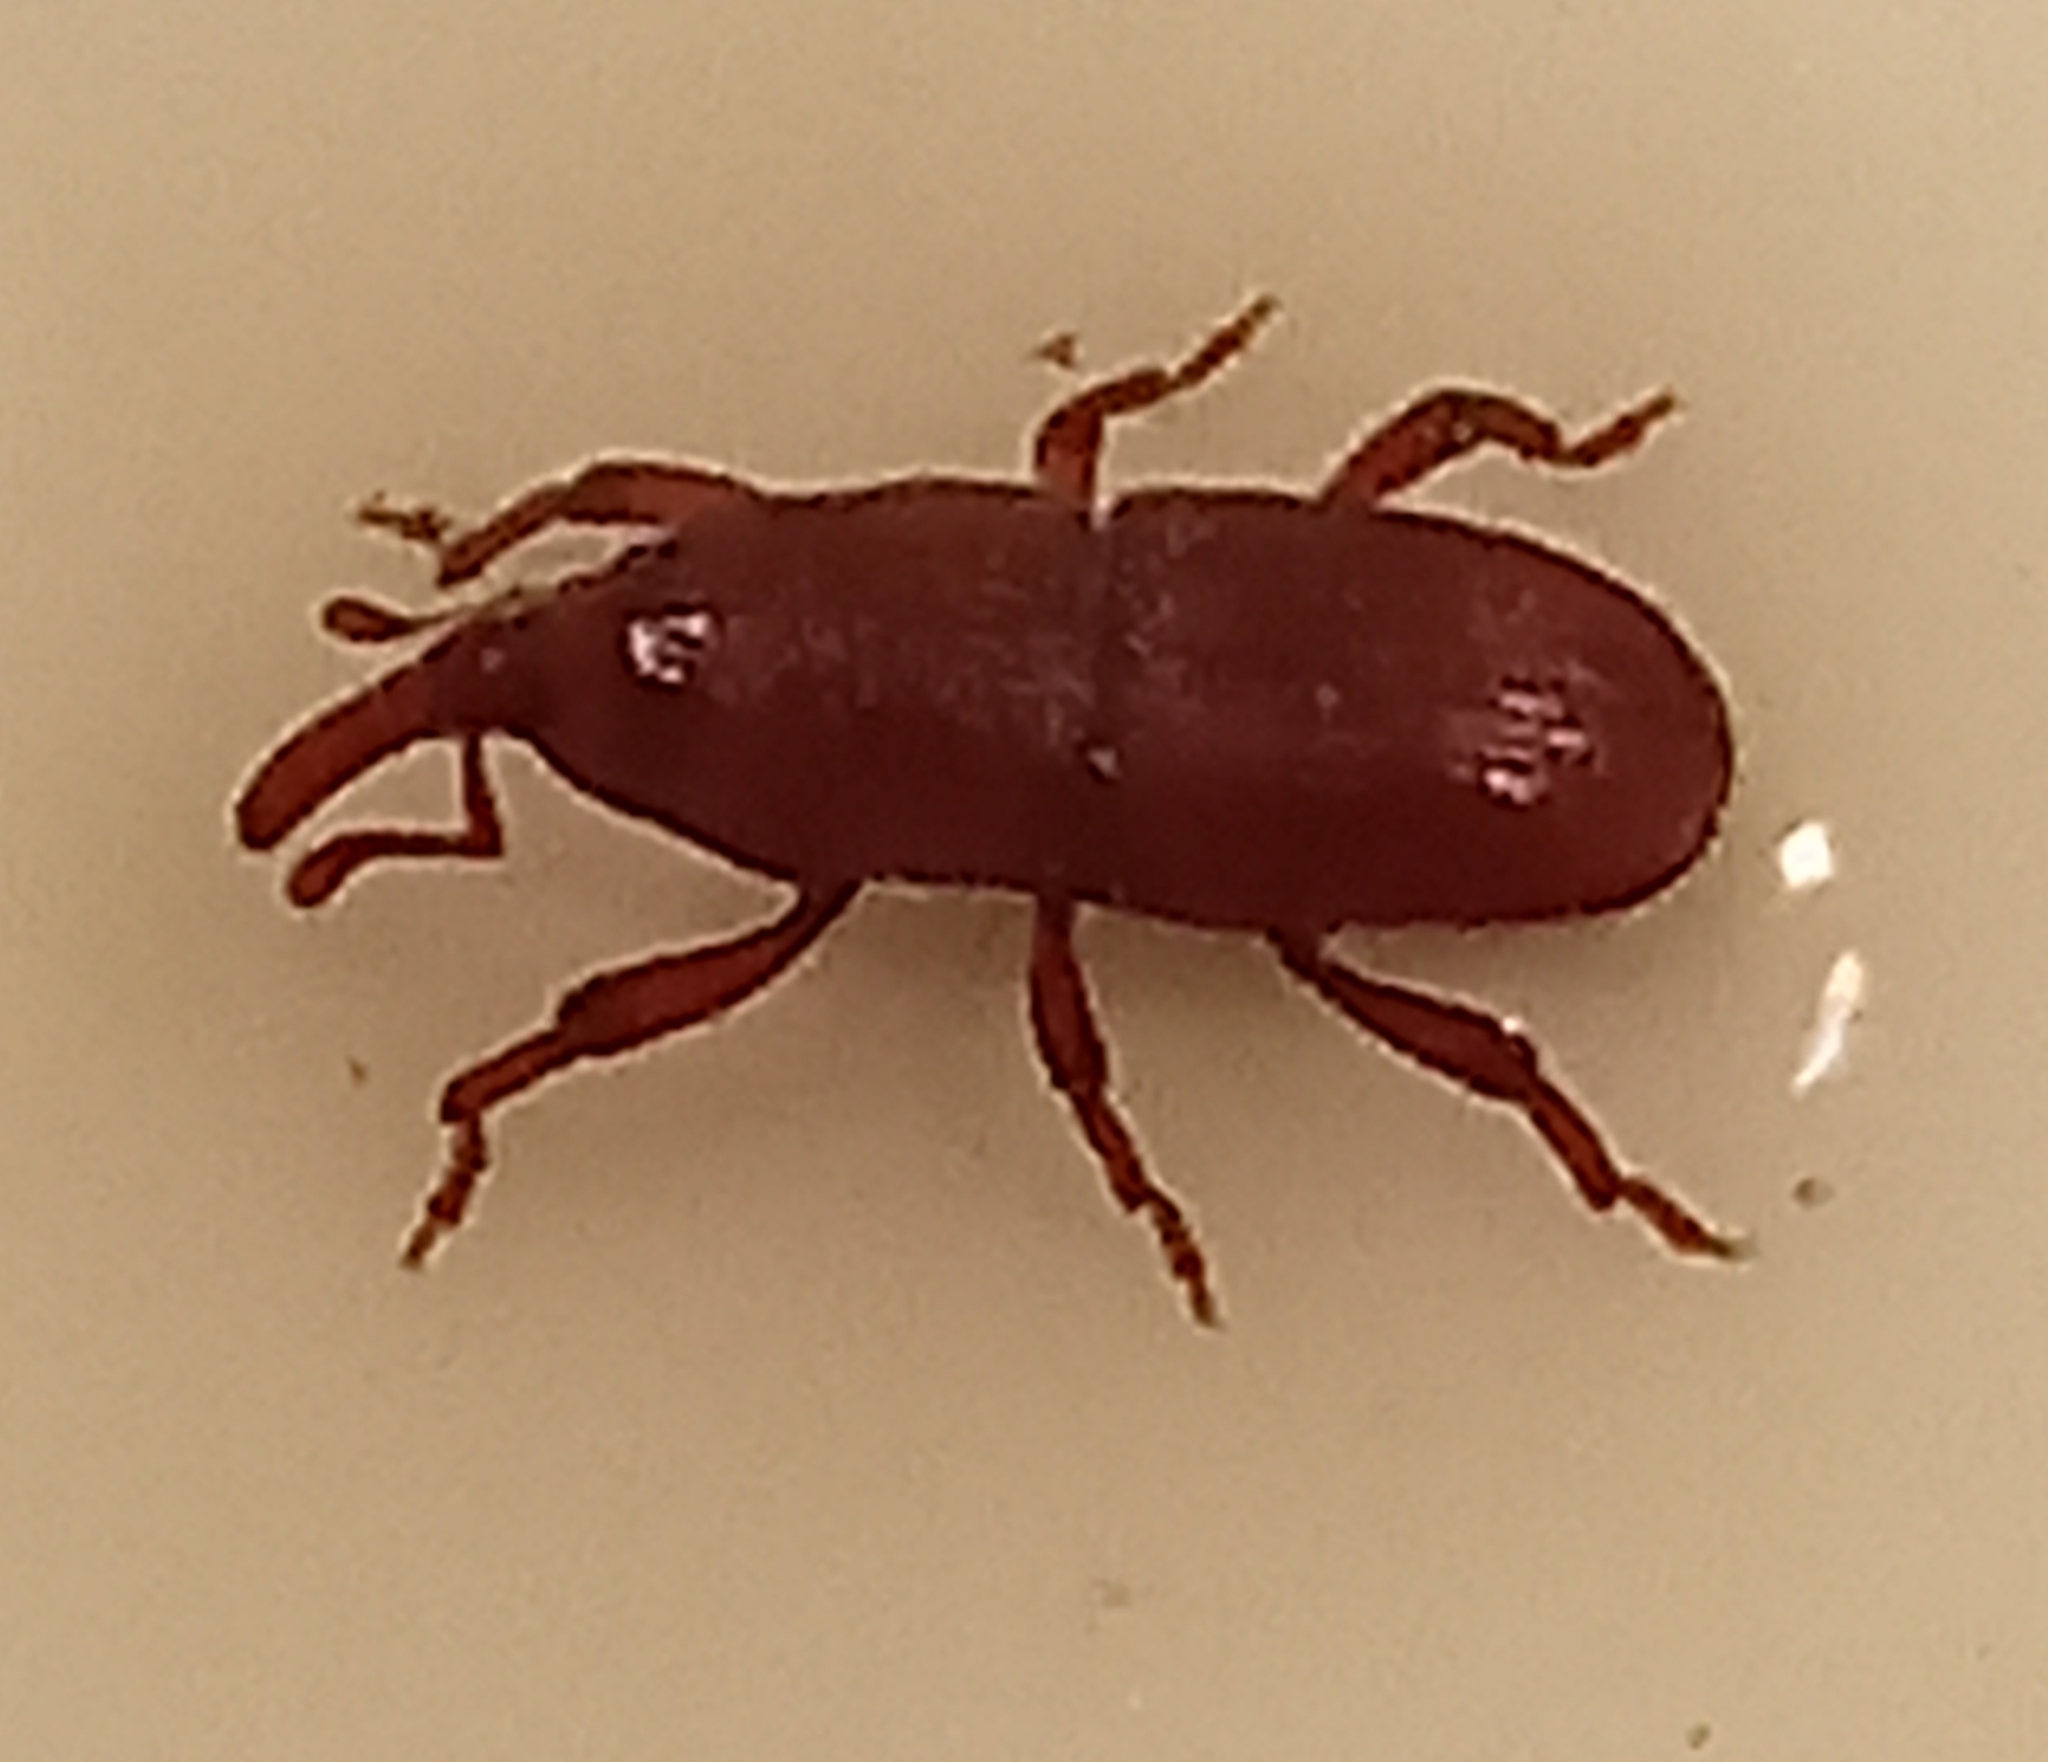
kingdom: Animalia
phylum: Arthropoda
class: Insecta
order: Coleoptera
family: Dryophthoridae
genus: Sitophilus
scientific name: Sitophilus granarius
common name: Granary weevil
